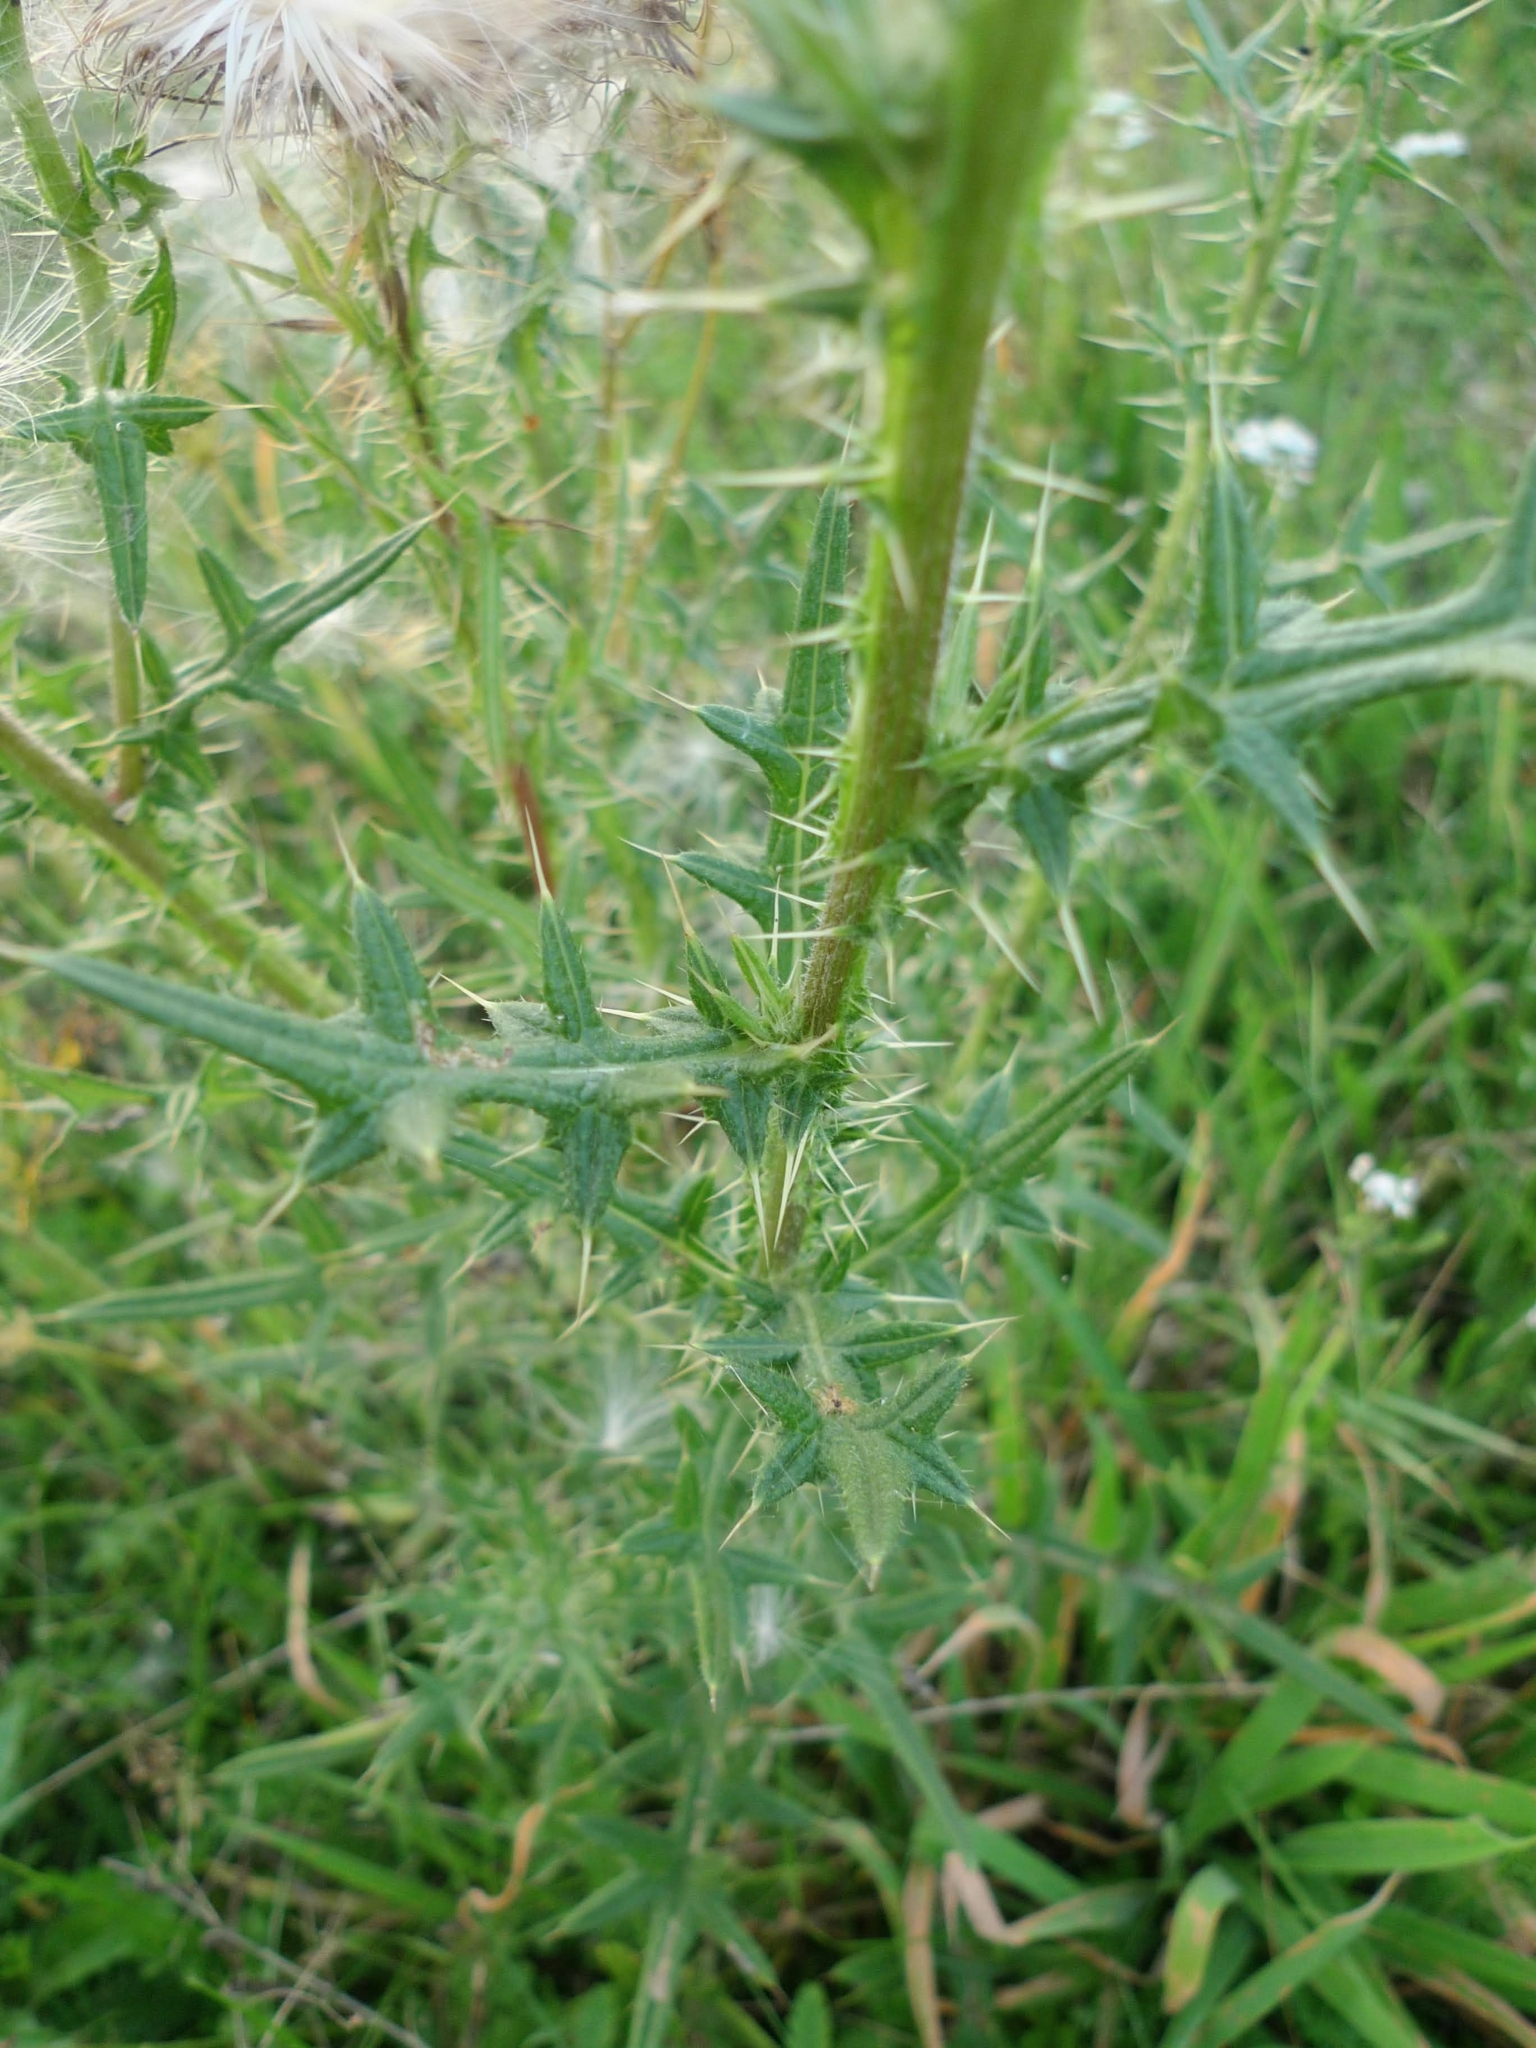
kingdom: Plantae
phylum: Tracheophyta
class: Magnoliopsida
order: Asterales
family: Asteraceae
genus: Cirsium
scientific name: Cirsium vulgare
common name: Bull thistle
